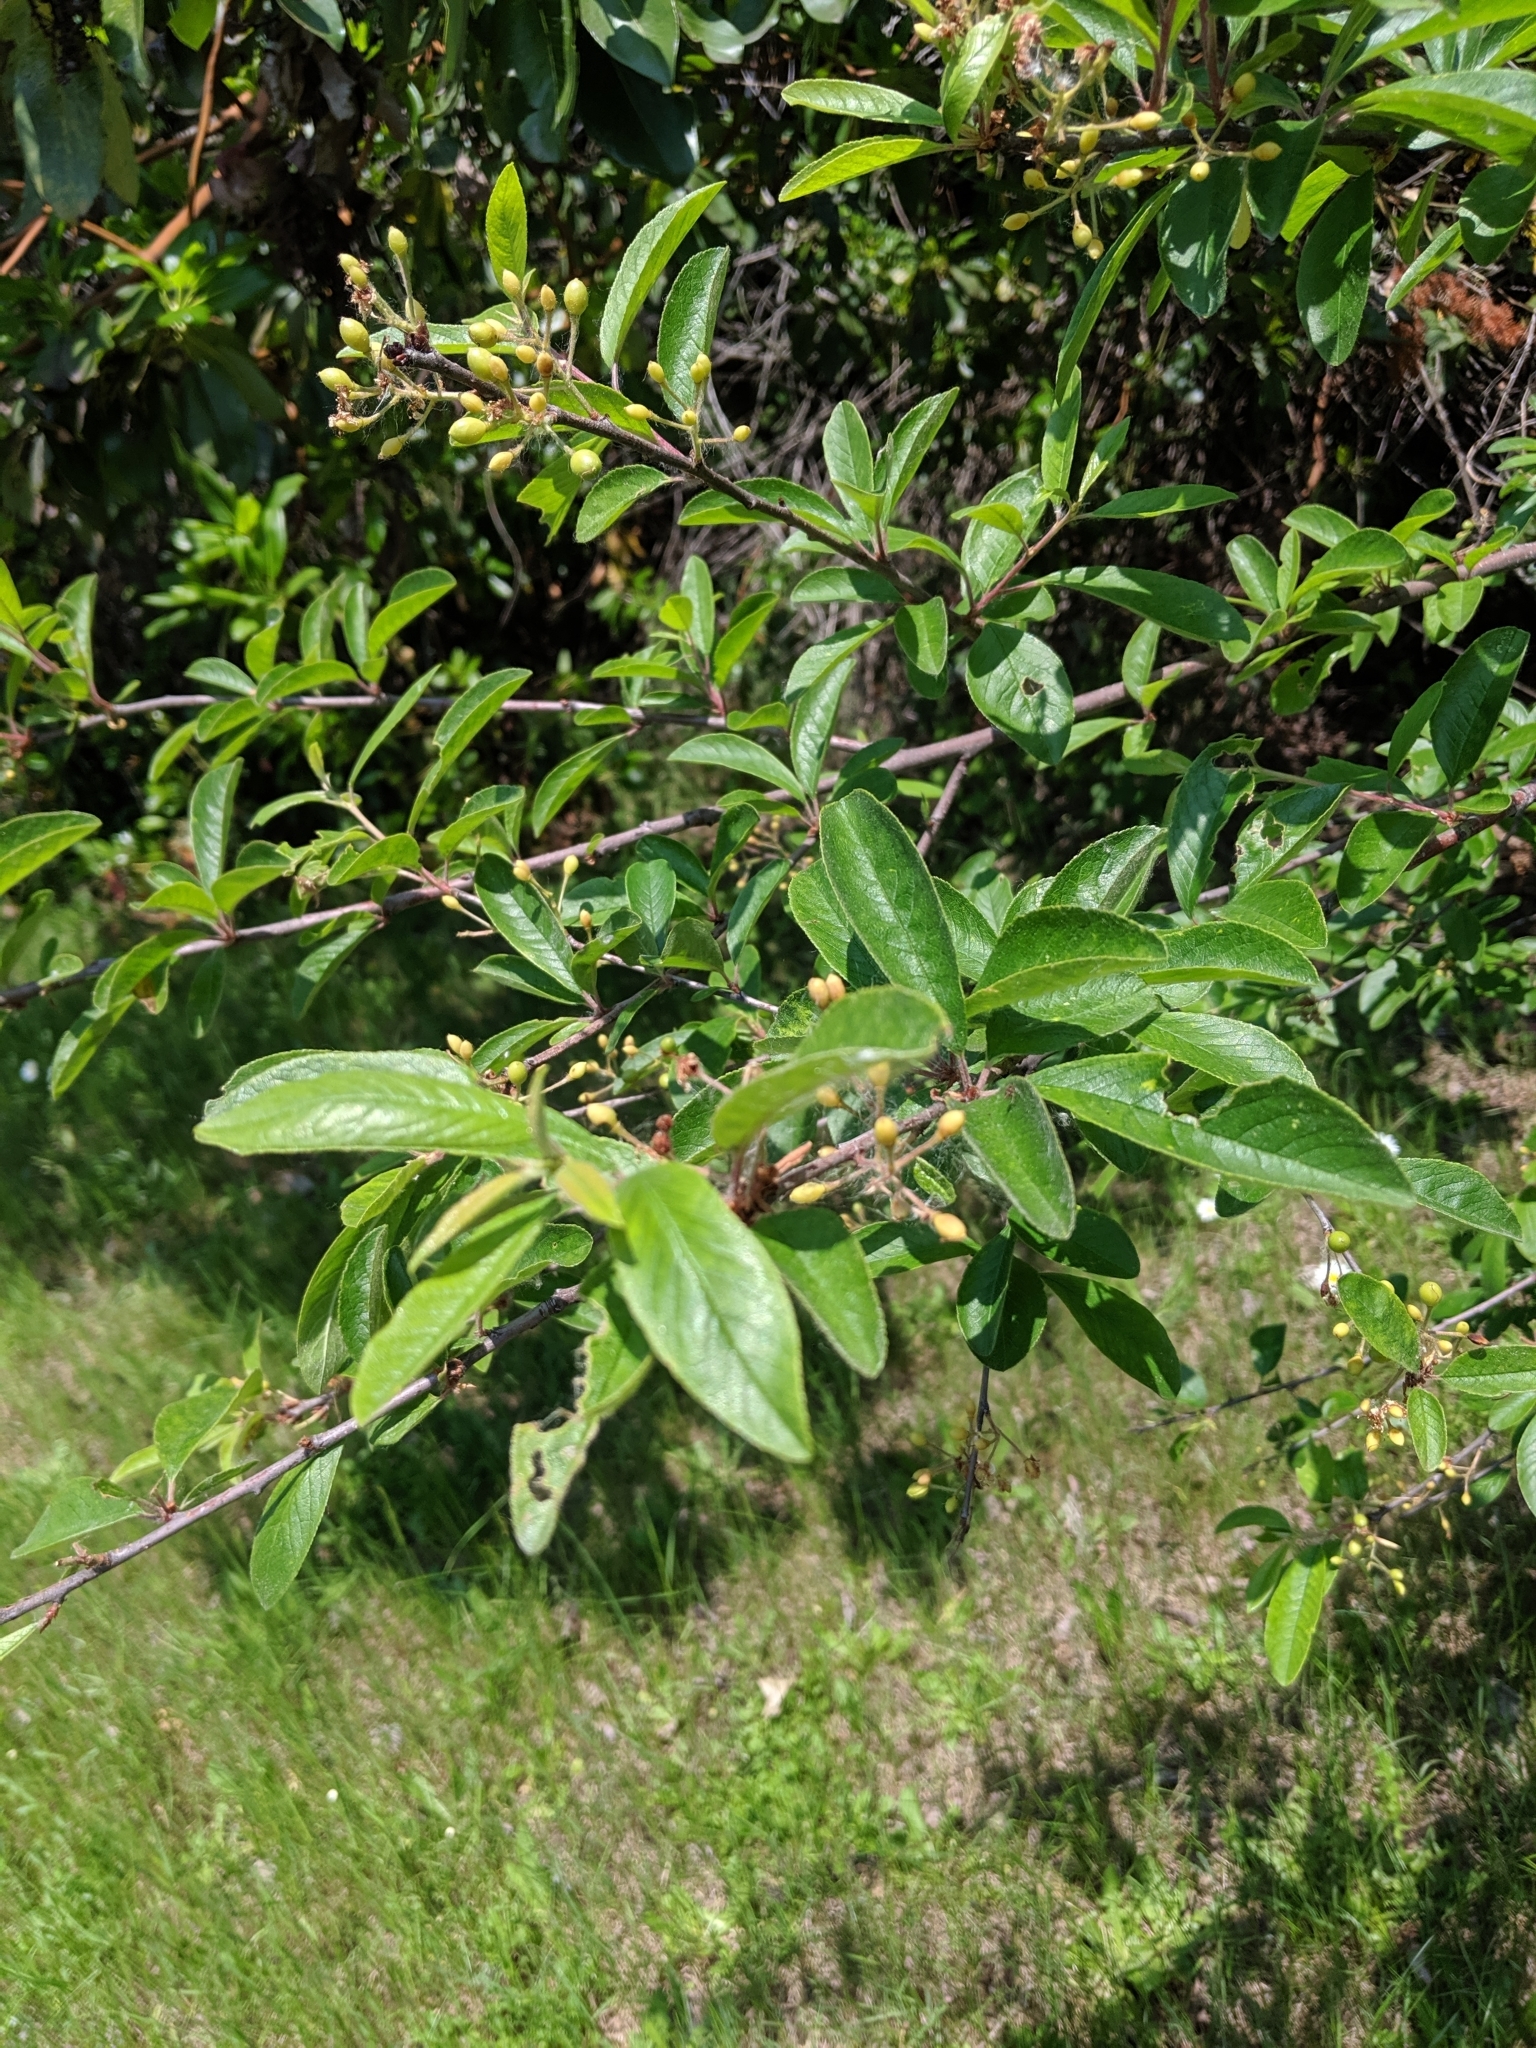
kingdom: Plantae
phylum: Tracheophyta
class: Magnoliopsida
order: Rosales
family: Rosaceae
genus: Prunus
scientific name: Prunus emarginata
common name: Bitter cherry
